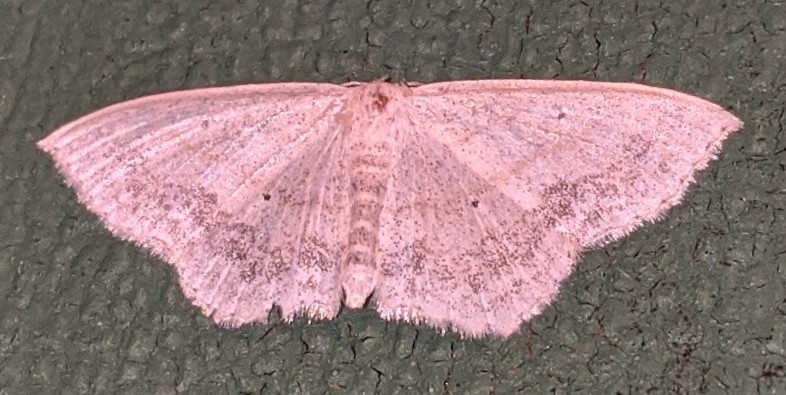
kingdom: Animalia
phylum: Arthropoda
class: Insecta
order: Lepidoptera
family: Geometridae
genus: Scopula
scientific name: Scopula limboundata
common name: Large lace border
